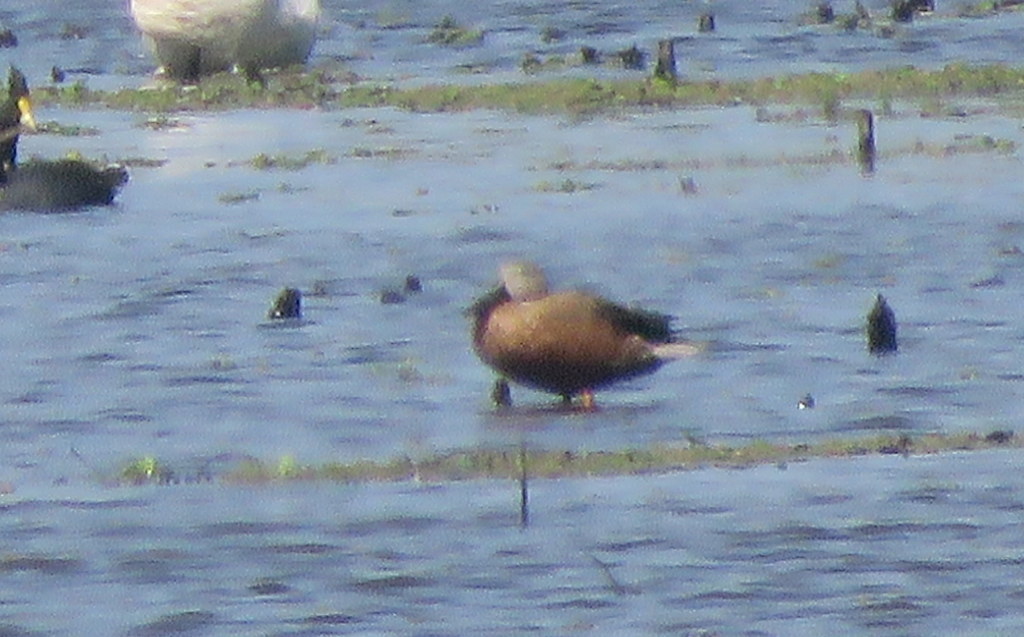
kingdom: Animalia
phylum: Chordata
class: Aves
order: Anseriformes
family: Anatidae
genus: Spatula
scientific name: Spatula platalea
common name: Red shoveler
